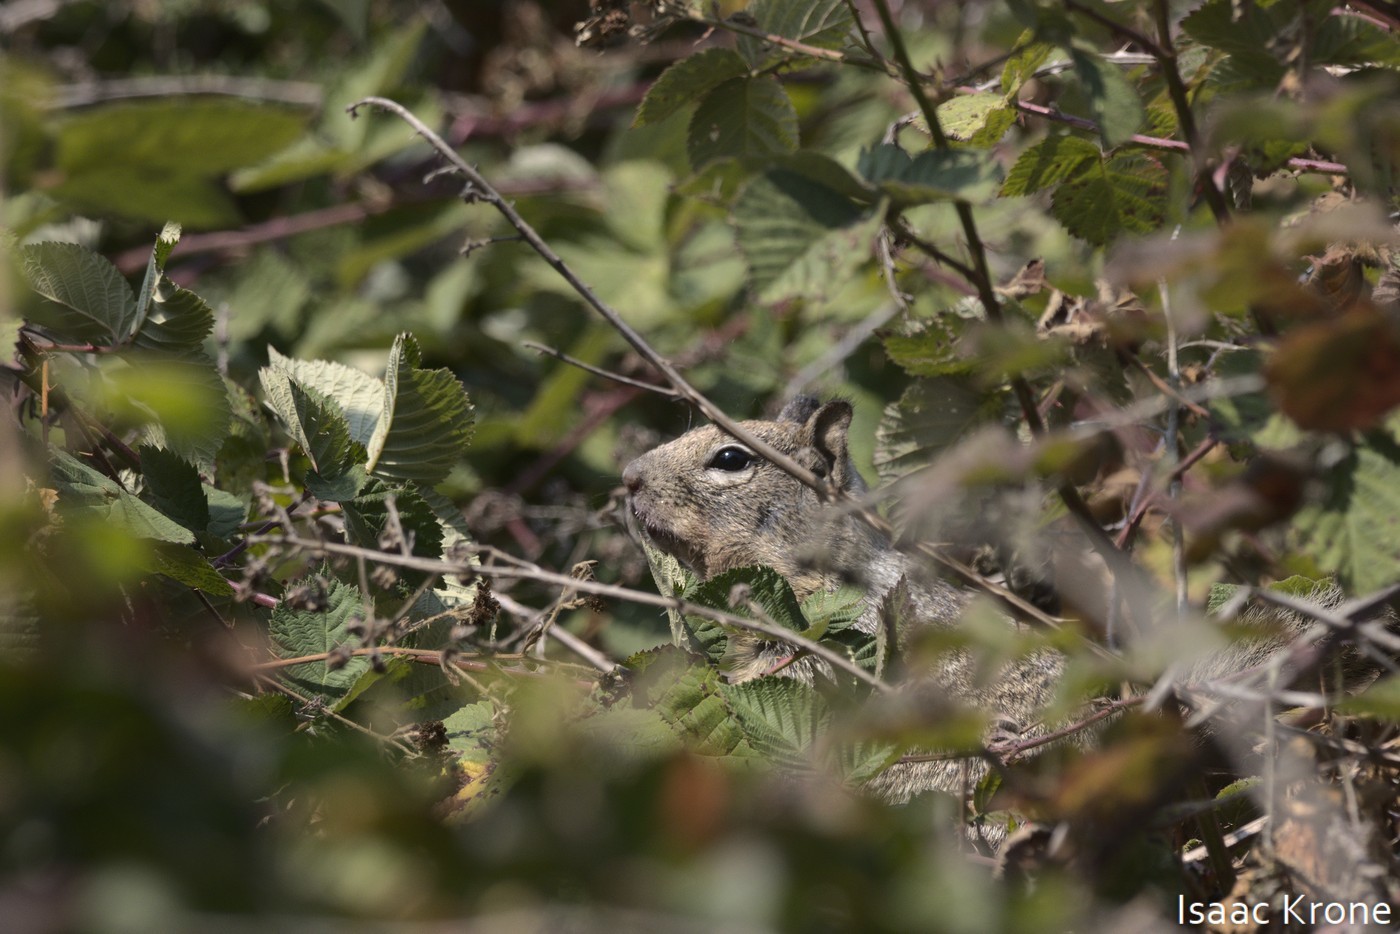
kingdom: Animalia
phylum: Chordata
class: Mammalia
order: Rodentia
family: Sciuridae
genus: Otospermophilus
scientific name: Otospermophilus beecheyi
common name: California ground squirrel
